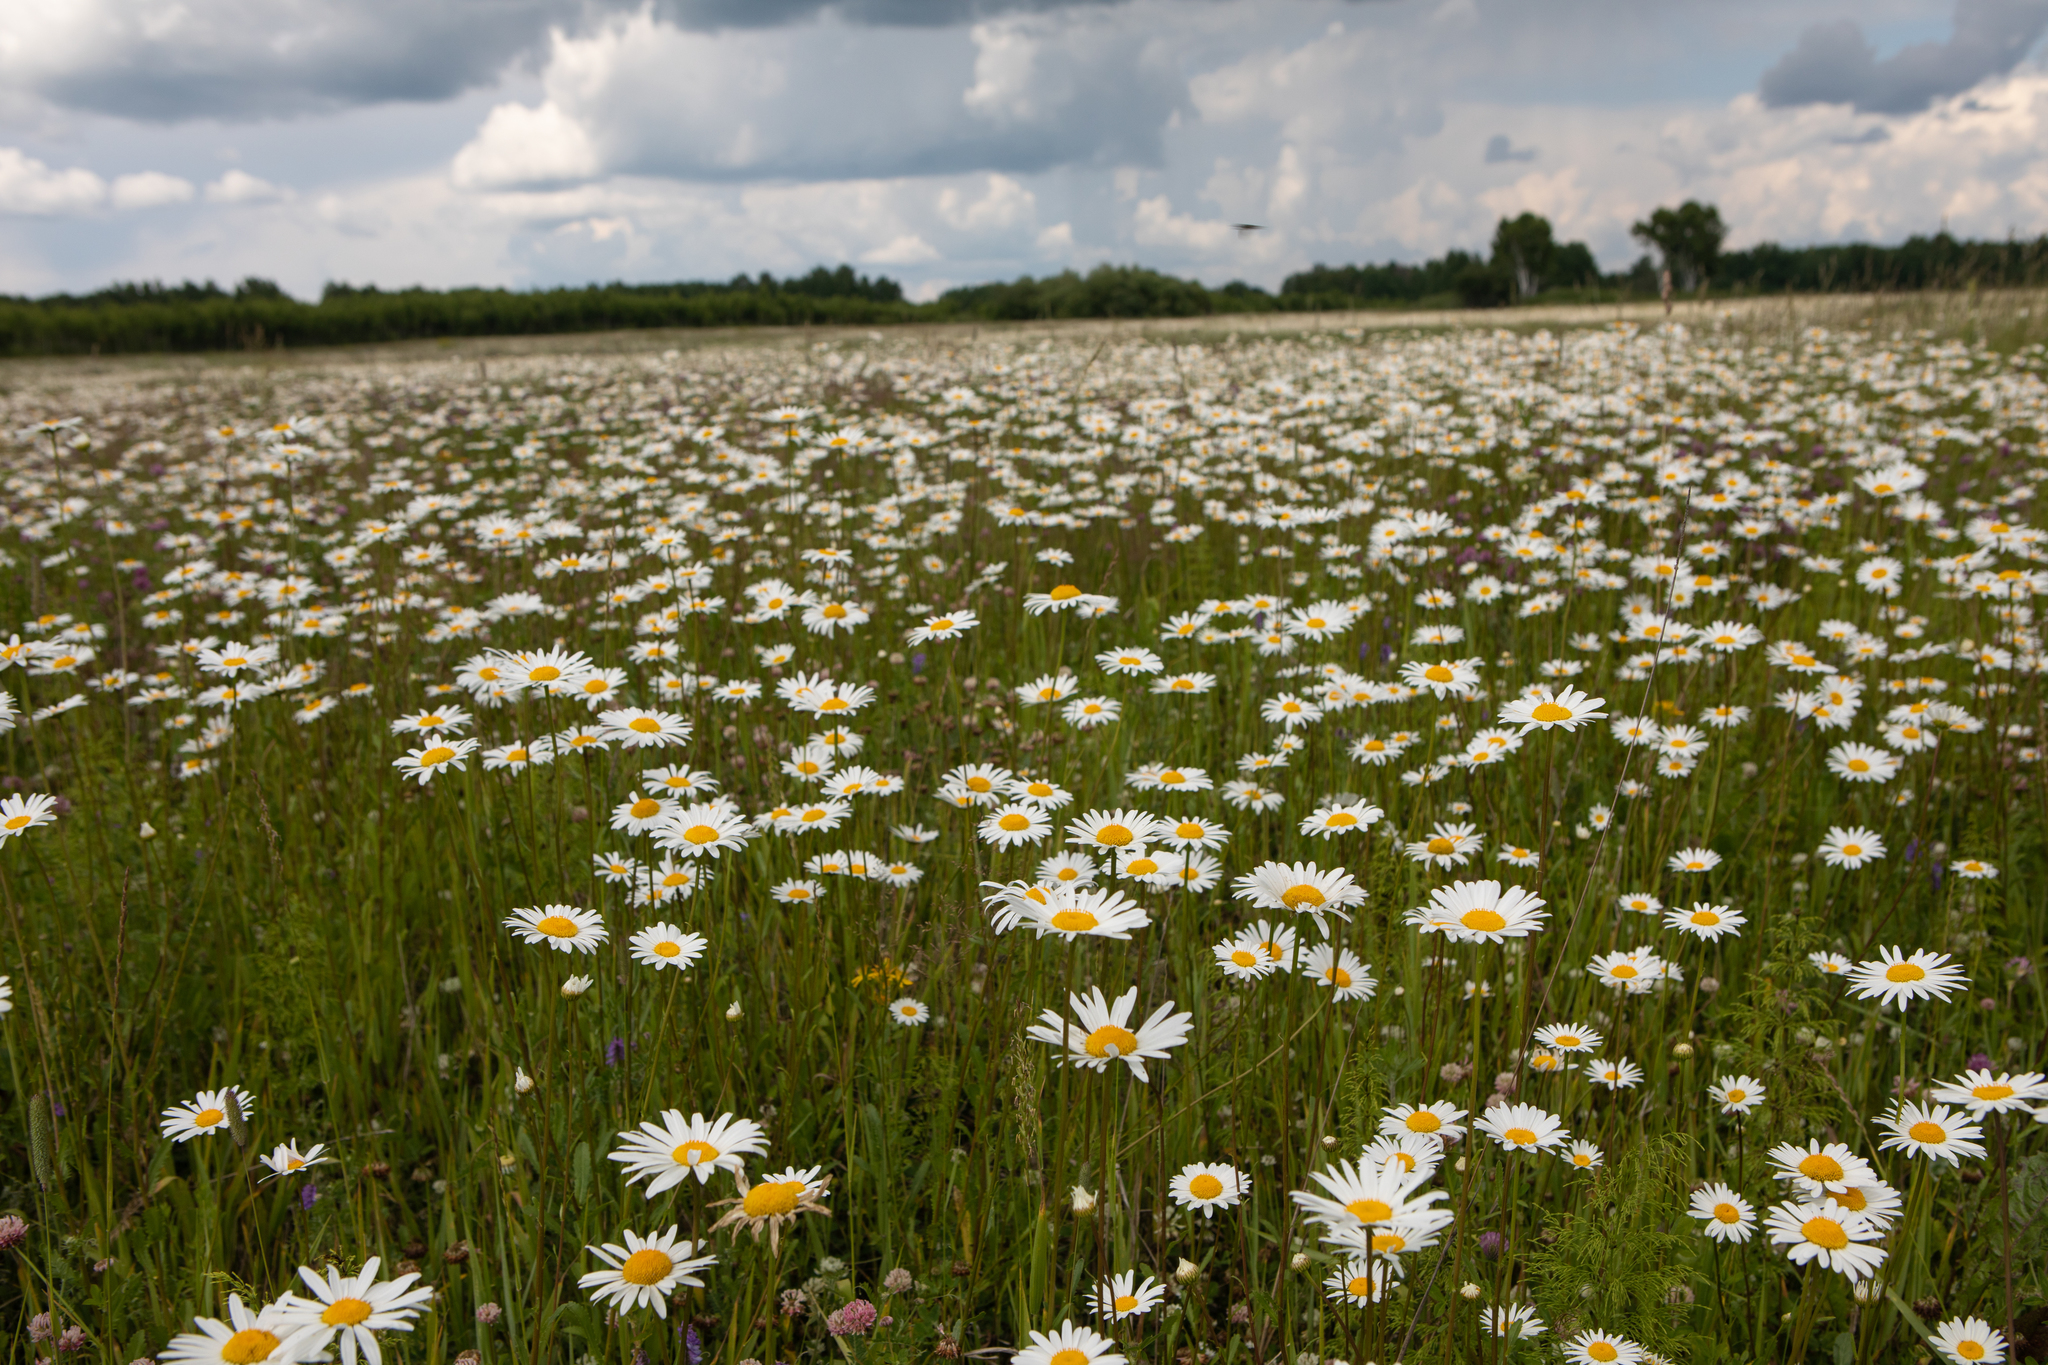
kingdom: Plantae
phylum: Tracheophyta
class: Magnoliopsida
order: Asterales
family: Asteraceae
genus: Leucanthemum
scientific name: Leucanthemum vulgare
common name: Oxeye daisy
